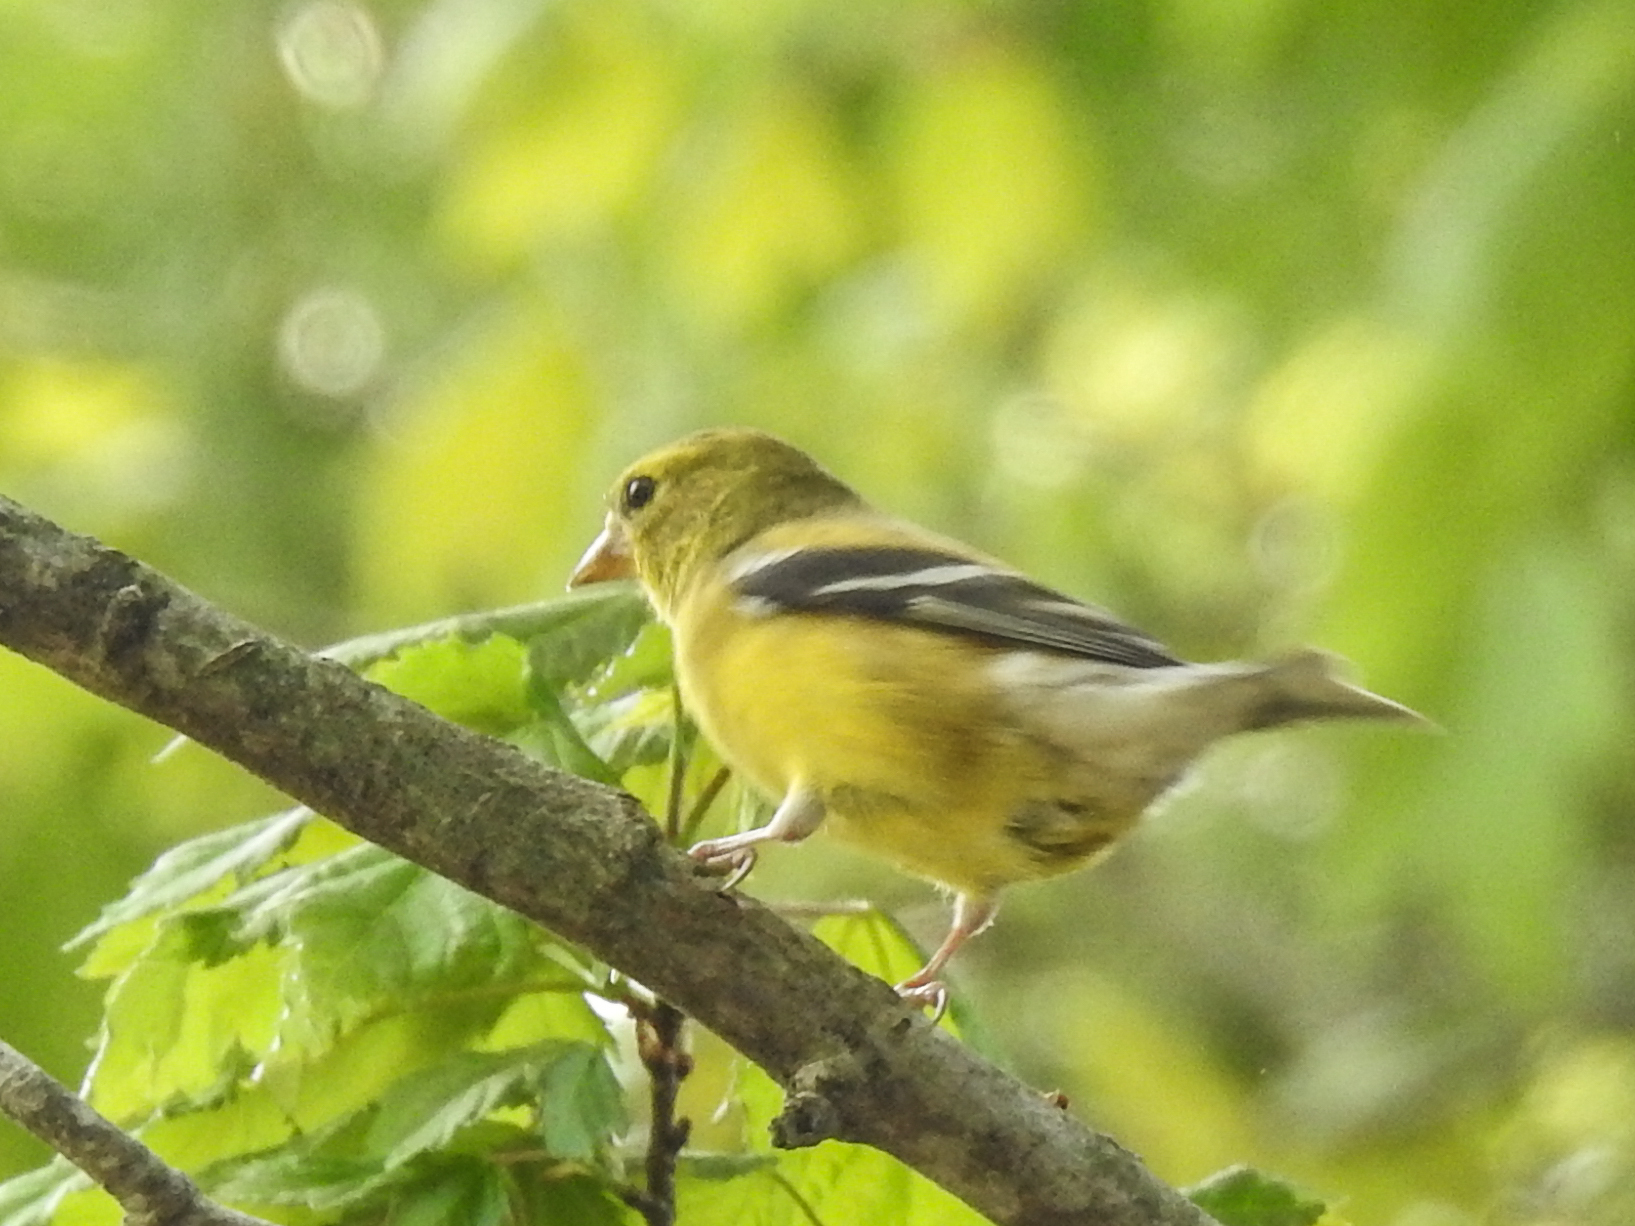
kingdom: Animalia
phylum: Chordata
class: Aves
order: Passeriformes
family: Fringillidae
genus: Spinus
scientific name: Spinus tristis
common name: American goldfinch
